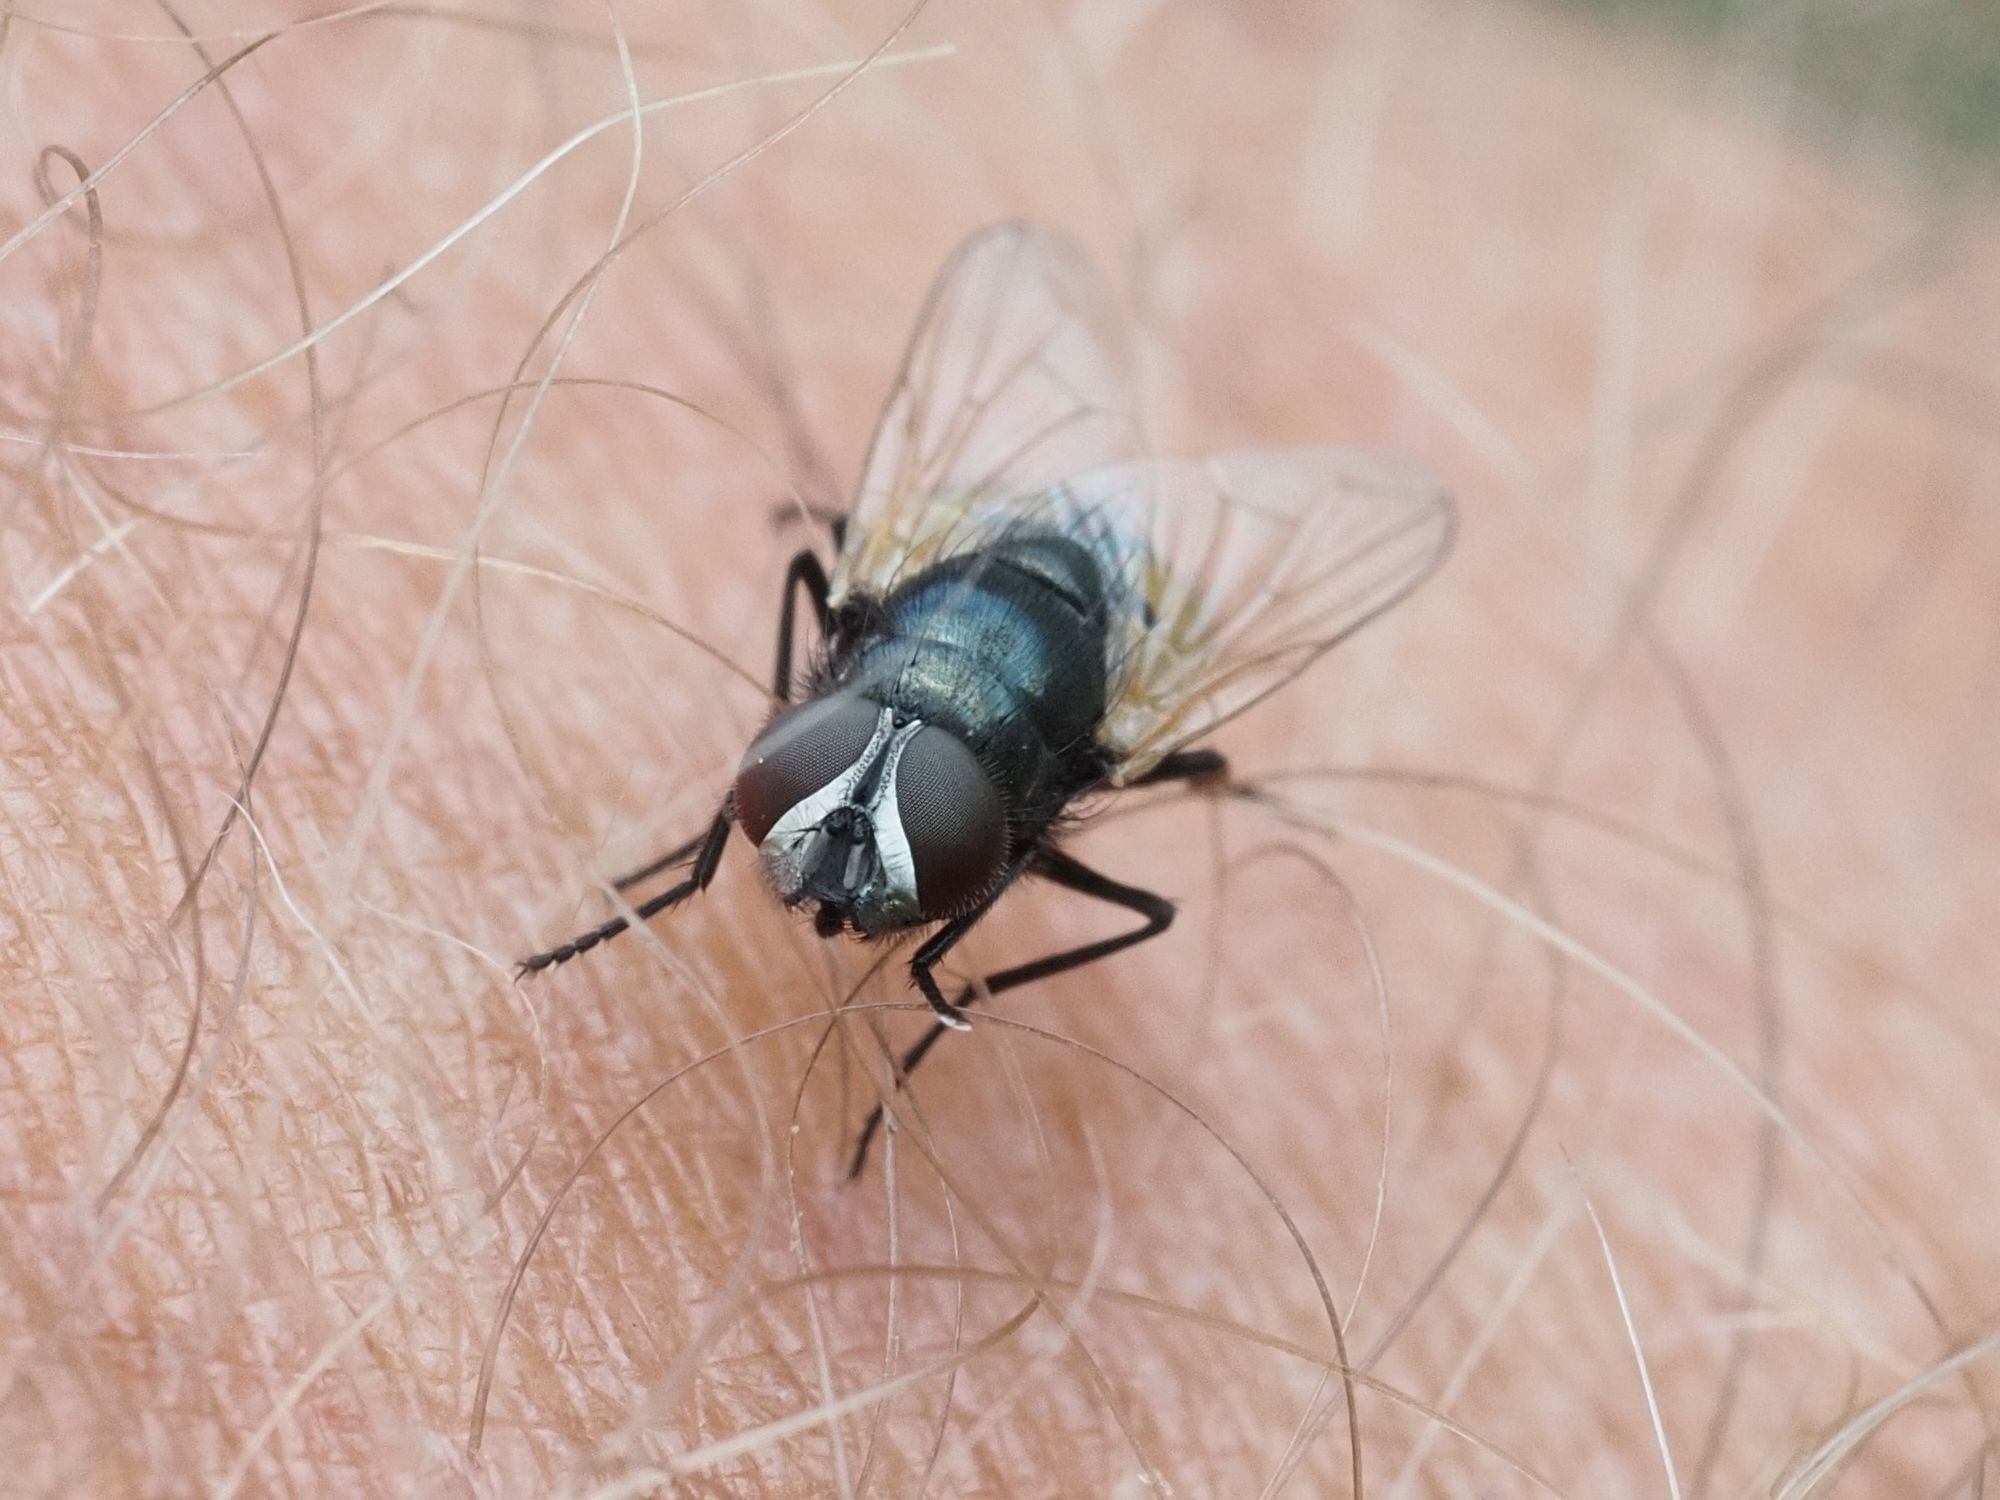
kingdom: Animalia
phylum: Arthropoda
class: Insecta
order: Diptera
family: Muscidae
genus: Musca
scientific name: Musca osiris
